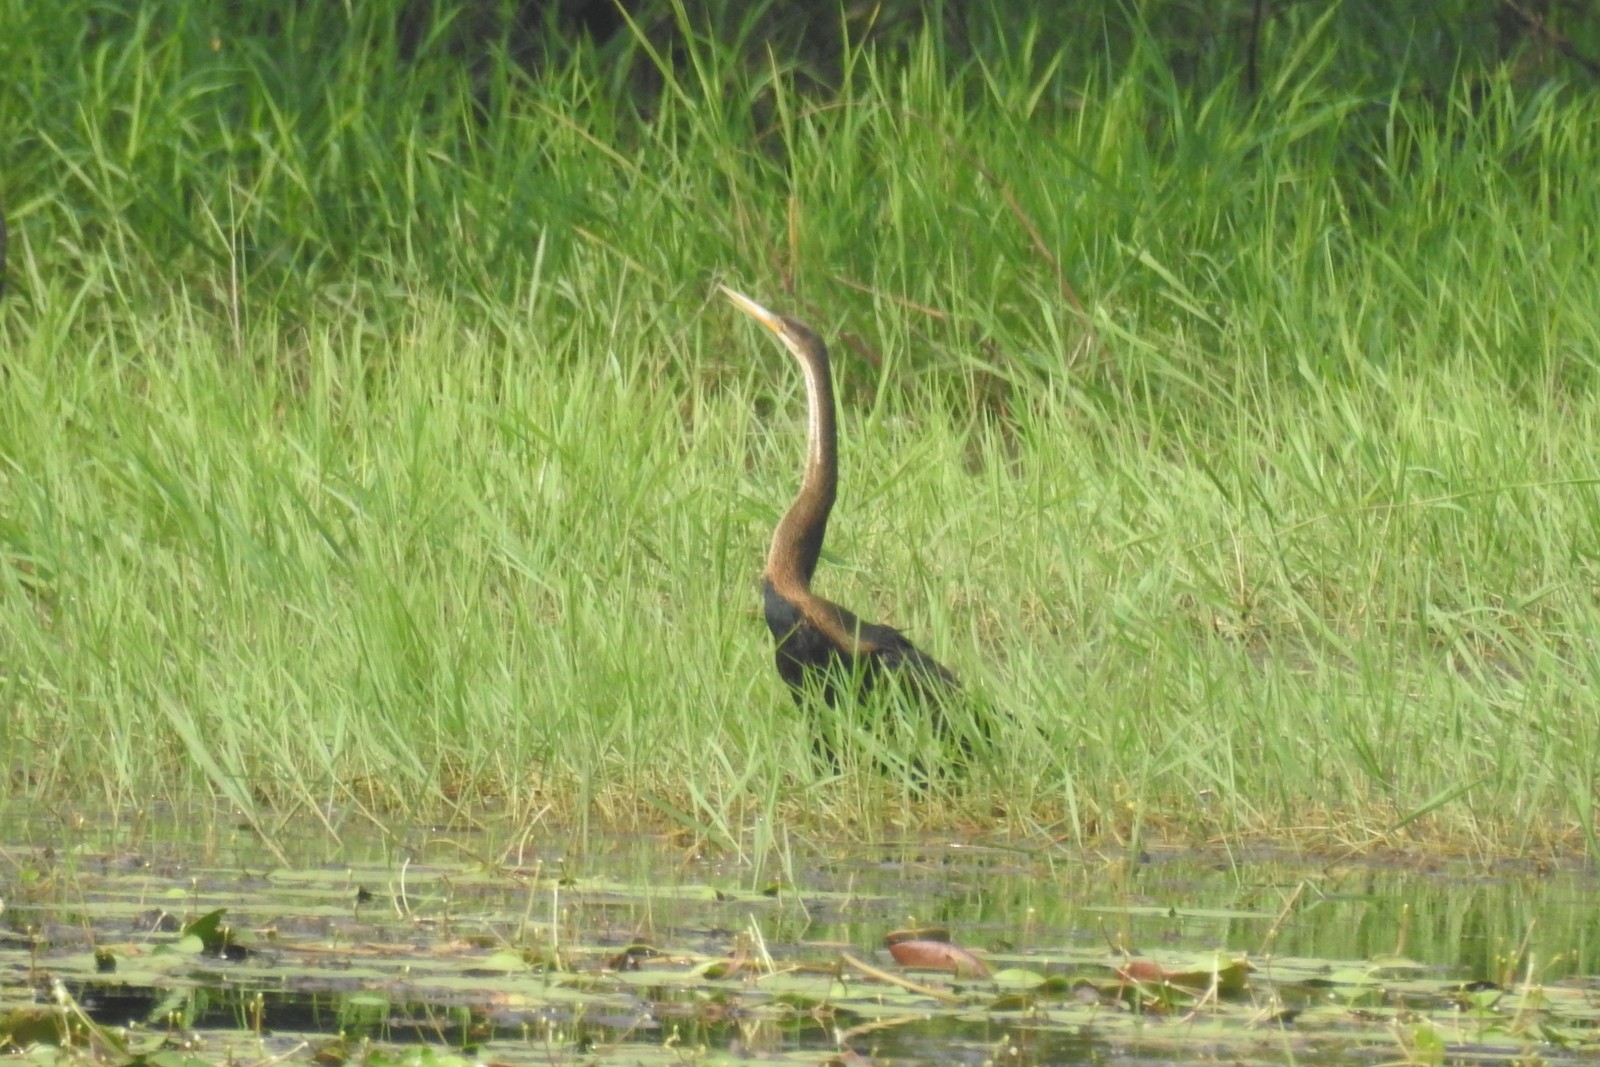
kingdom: Animalia
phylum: Chordata
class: Aves
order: Suliformes
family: Anhingidae
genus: Anhinga
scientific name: Anhinga melanogaster
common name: Oriental darter
